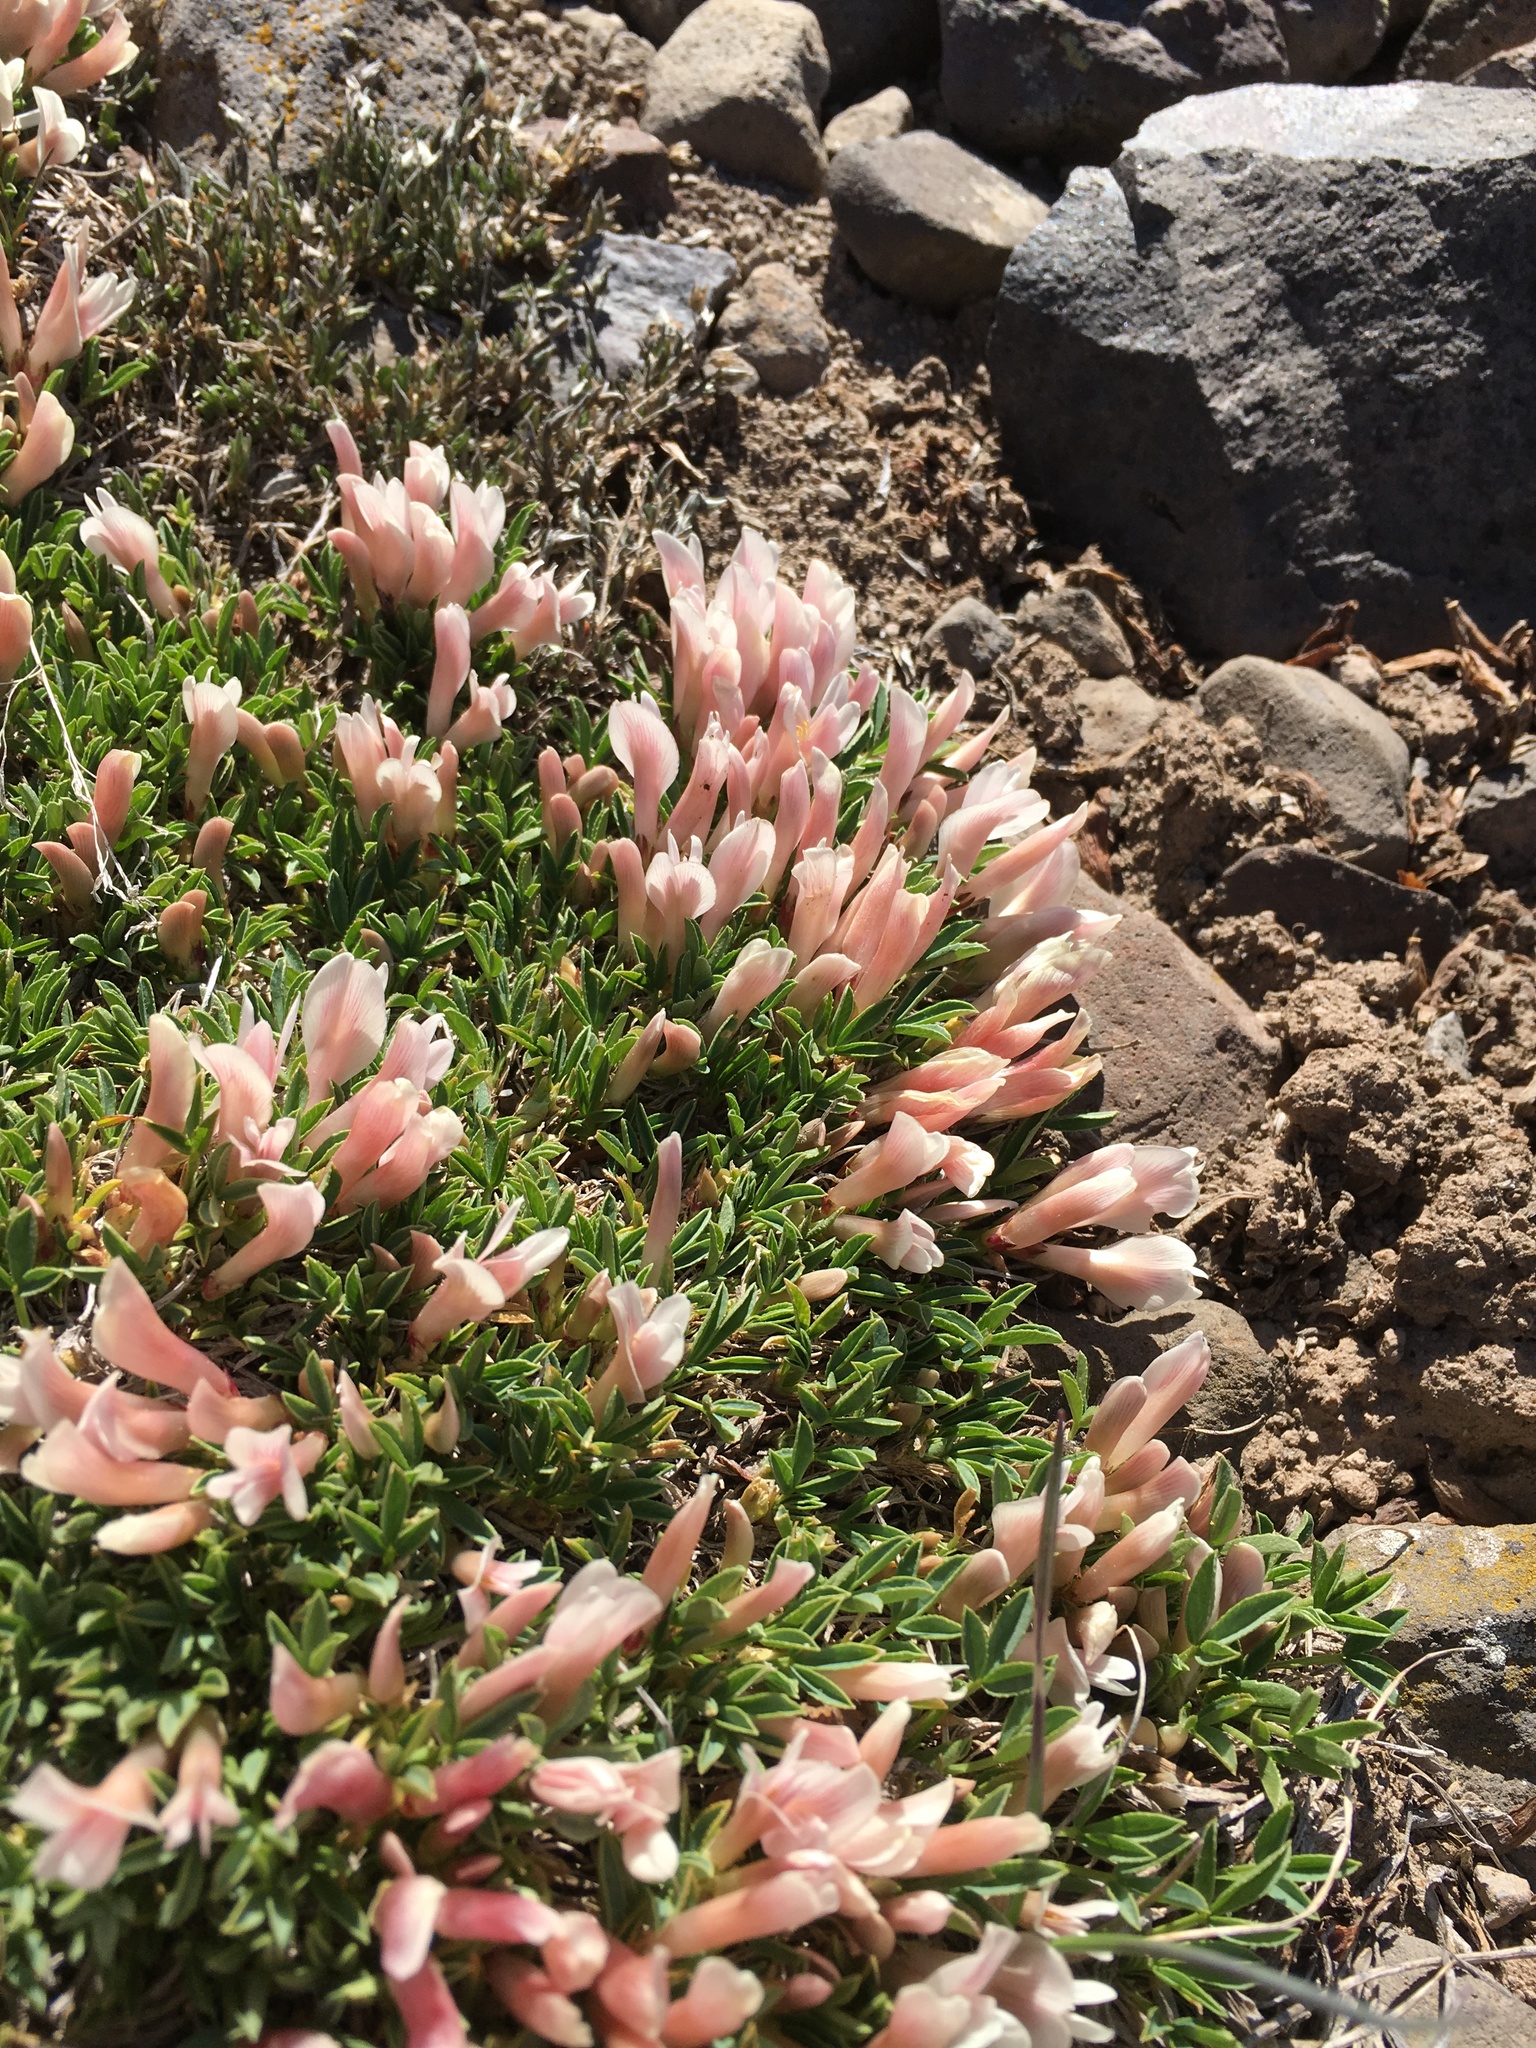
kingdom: Plantae
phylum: Tracheophyta
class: Magnoliopsida
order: Fabales
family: Fabaceae
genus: Trifolium
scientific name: Trifolium nanum
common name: Tundra clover
